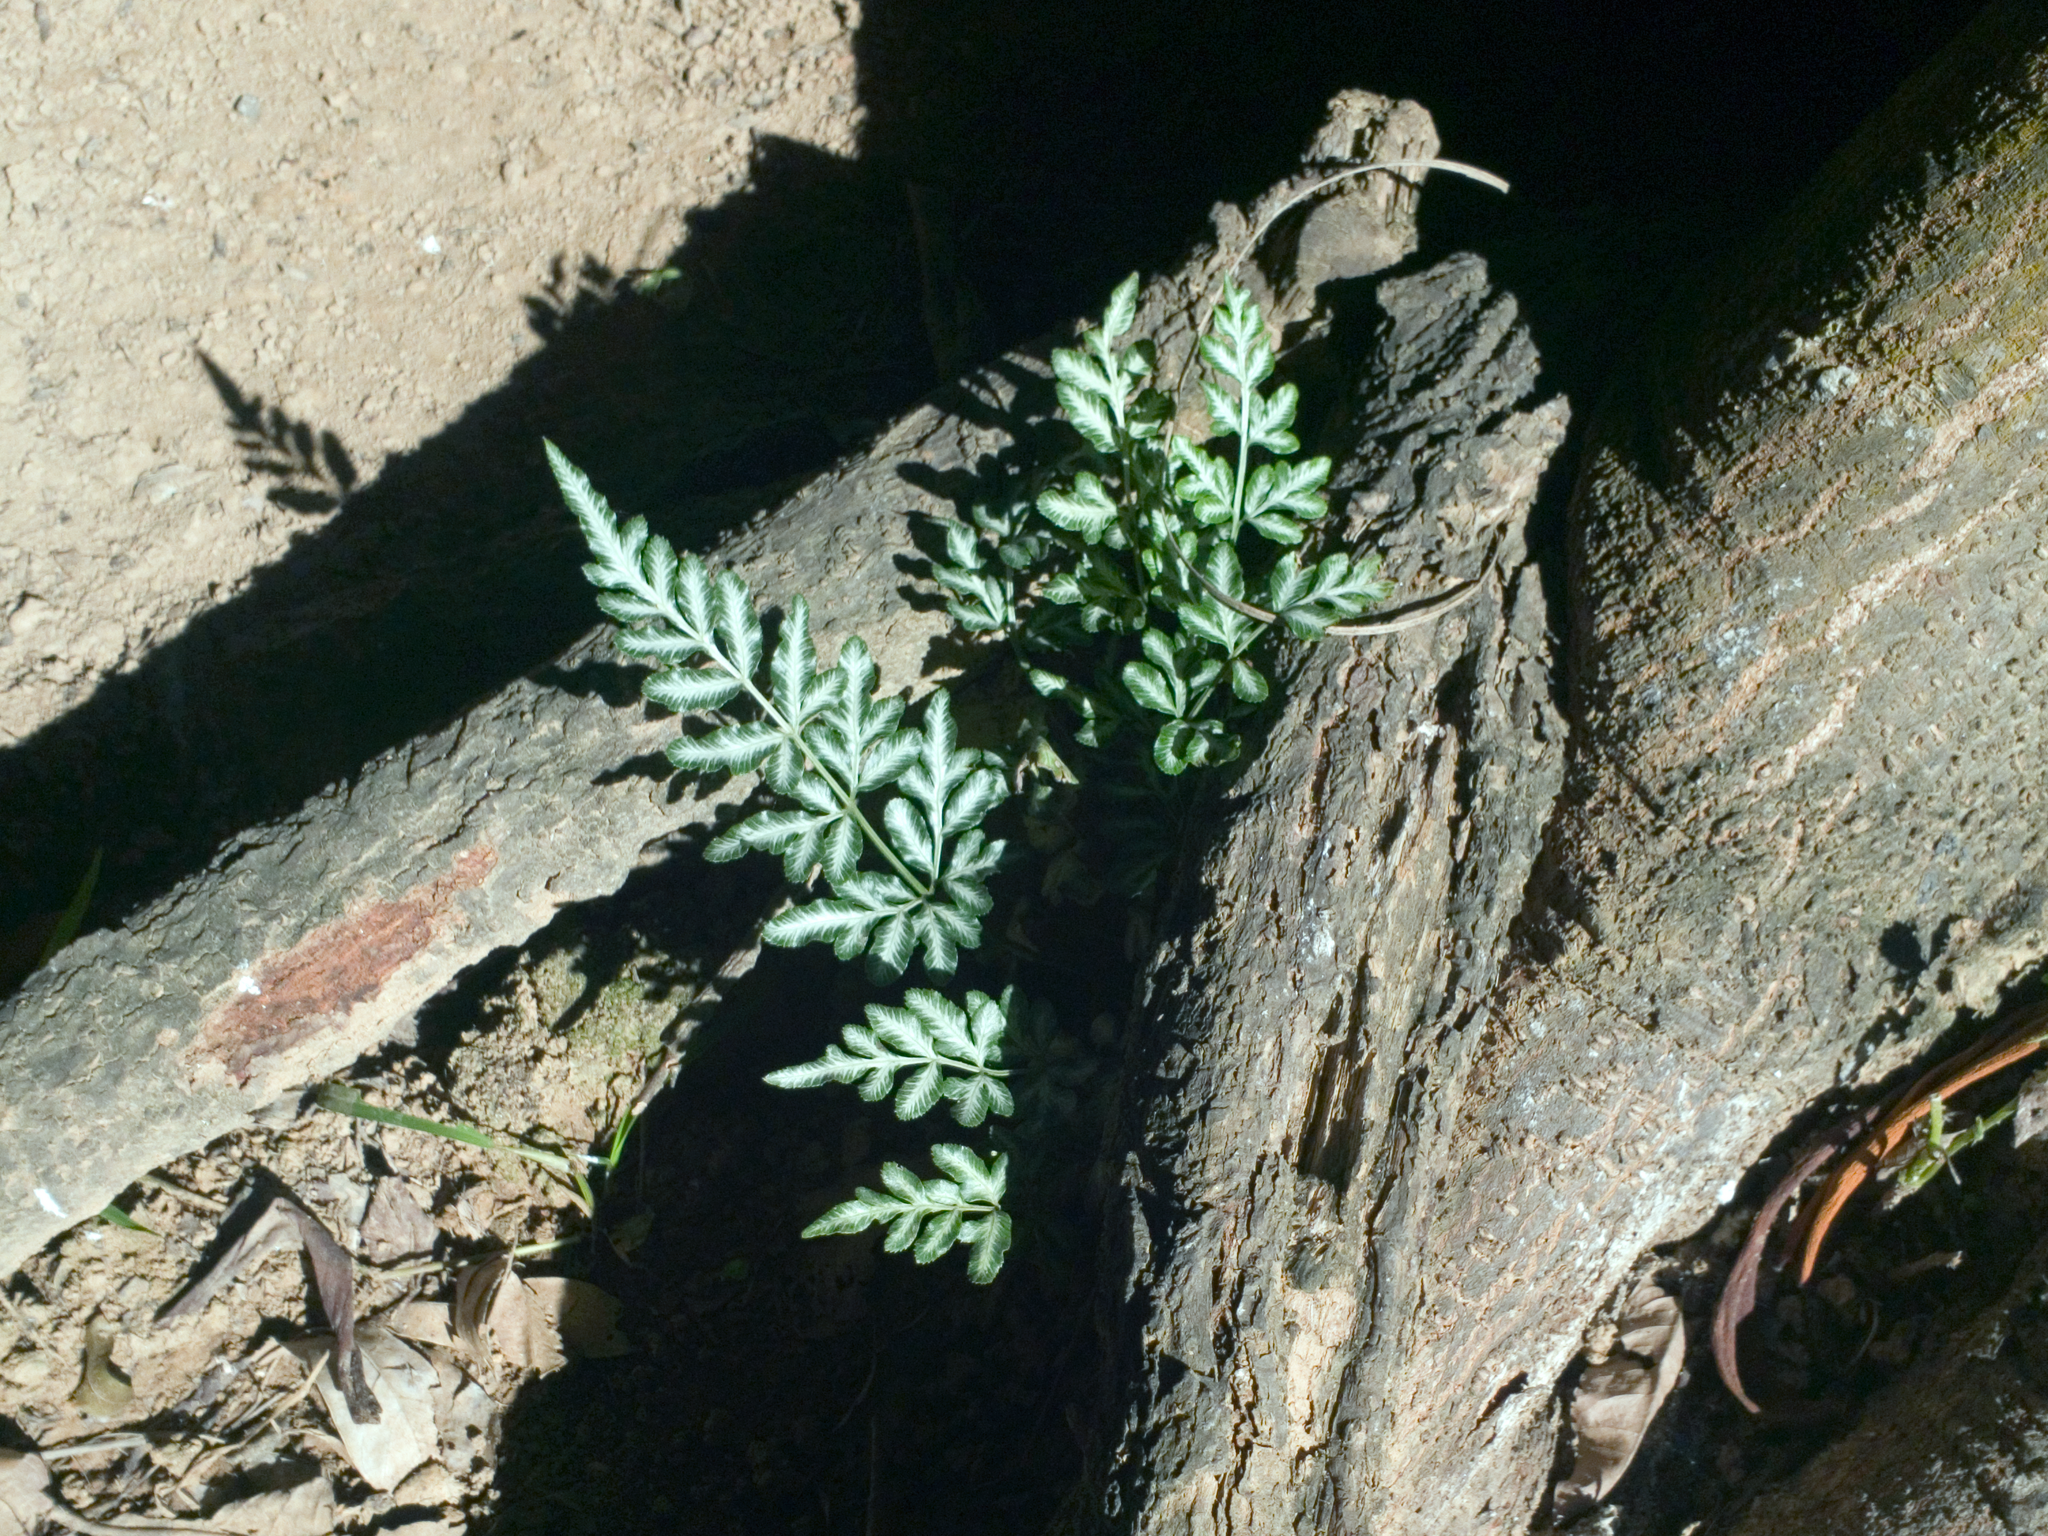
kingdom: Plantae
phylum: Tracheophyta
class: Polypodiopsida
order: Polypodiales
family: Pteridaceae
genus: Pteris
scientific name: Pteris ensiformis
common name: Sword brake
